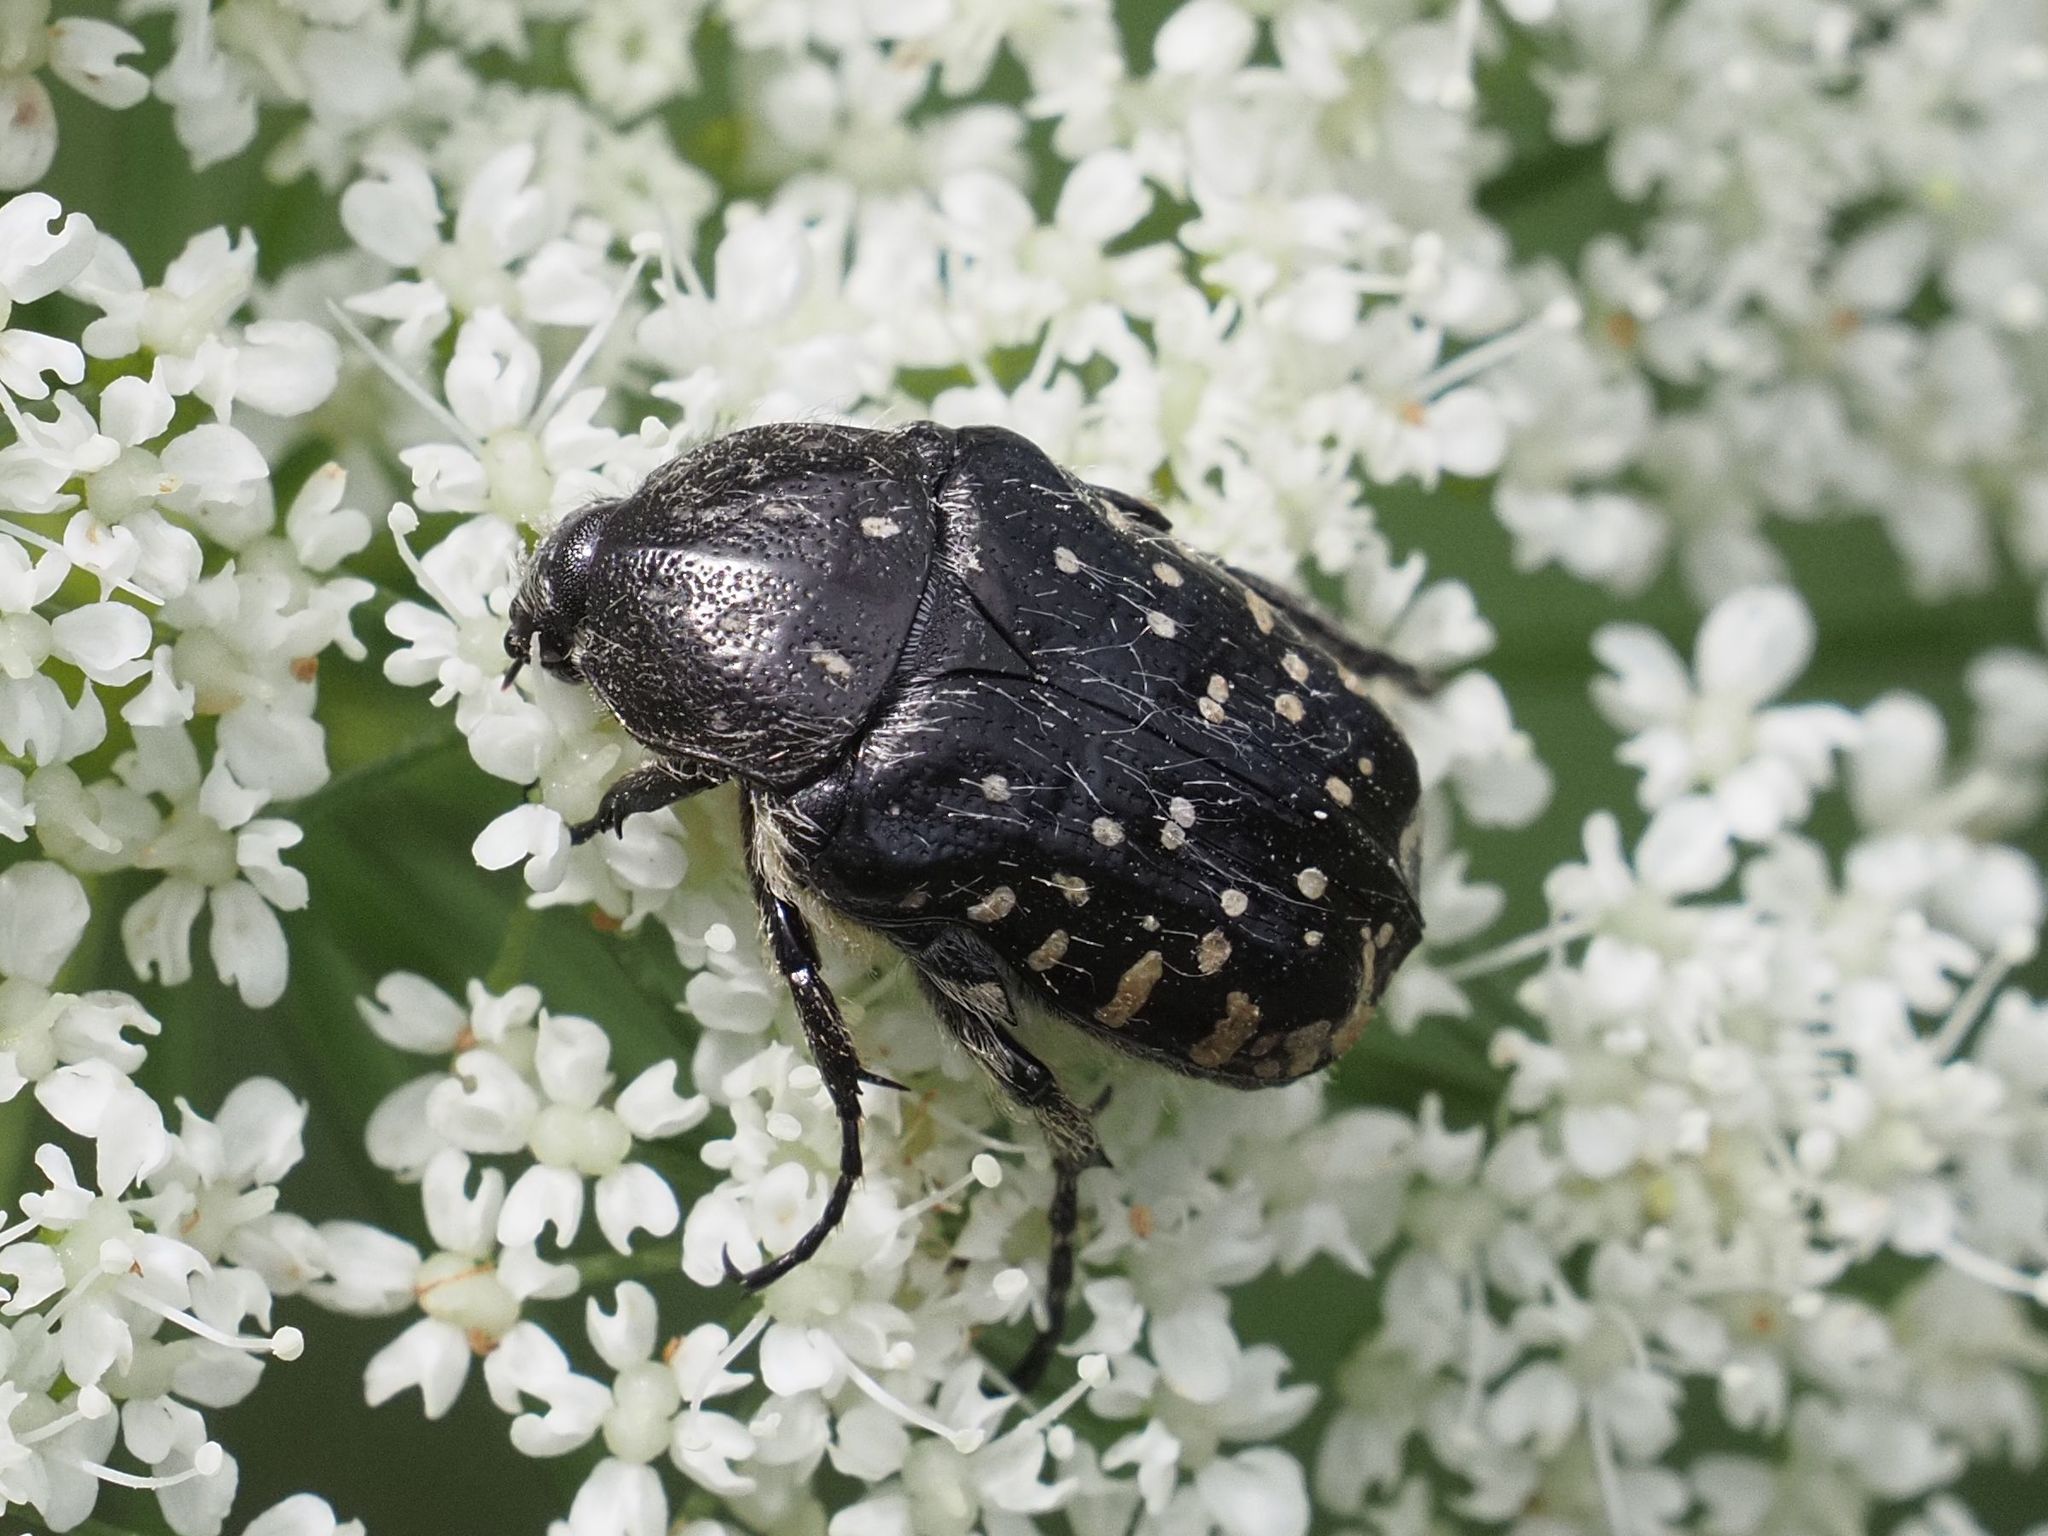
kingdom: Animalia
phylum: Arthropoda
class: Insecta
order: Coleoptera
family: Scarabaeidae
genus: Oxythyrea
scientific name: Oxythyrea funesta
